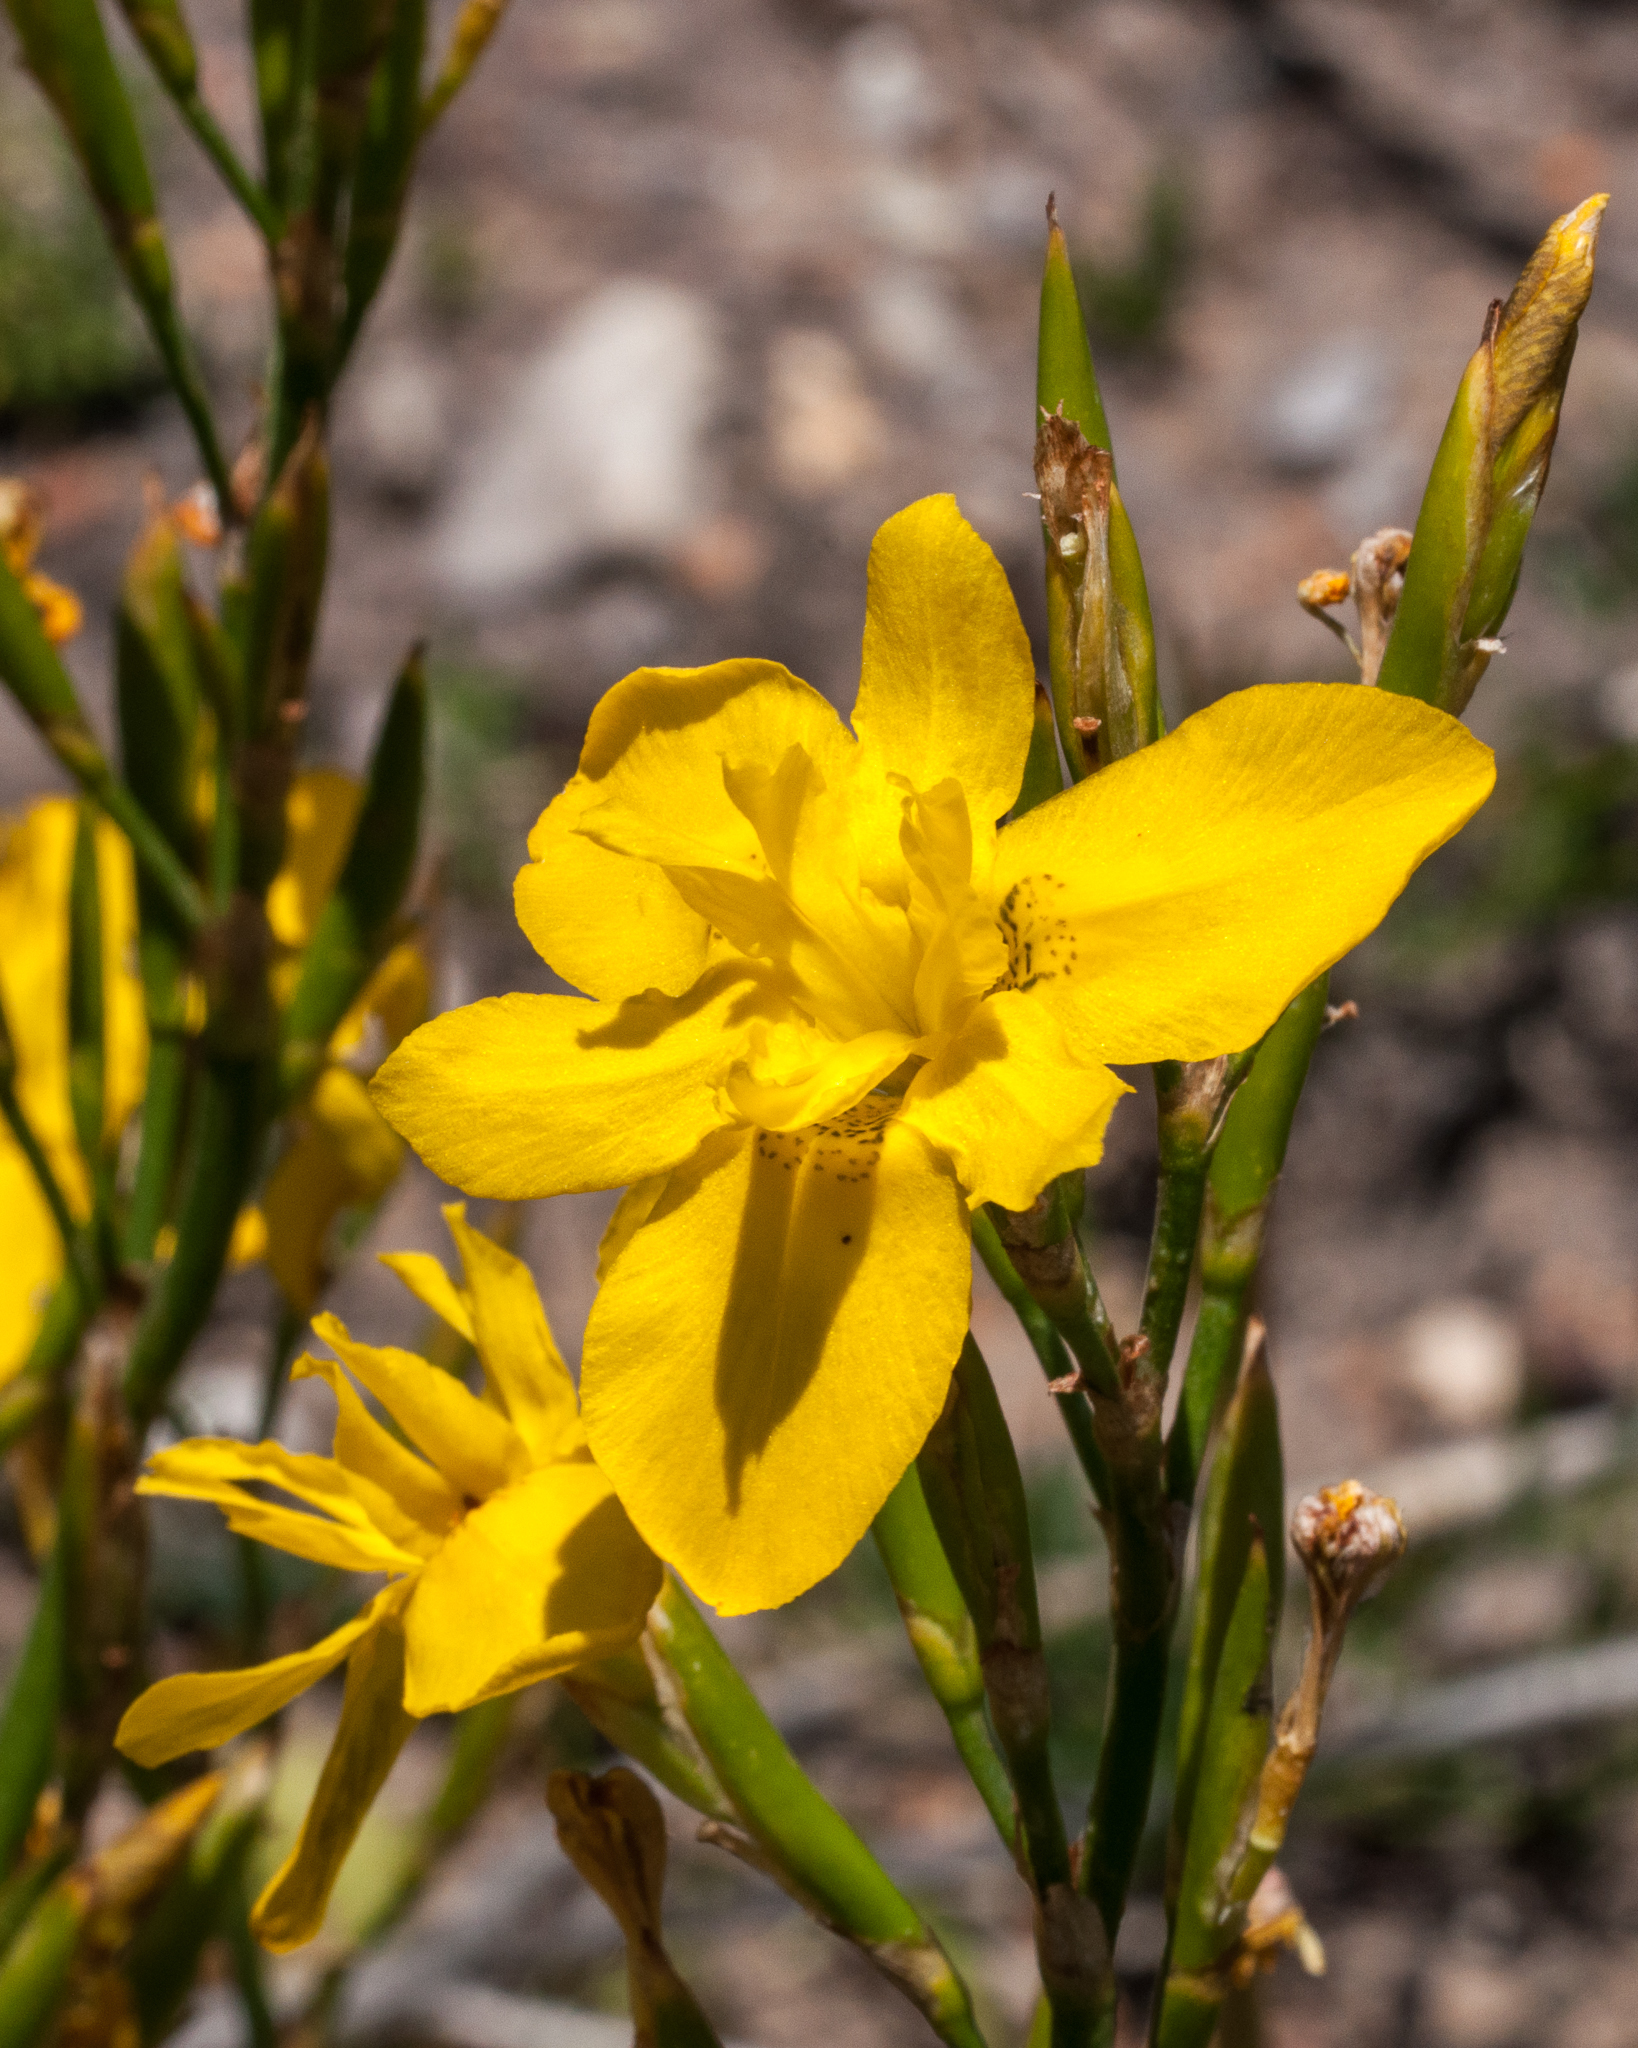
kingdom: Plantae
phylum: Tracheophyta
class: Liliopsida
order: Asparagales
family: Iridaceae
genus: Moraea
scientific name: Moraea ramosissima
